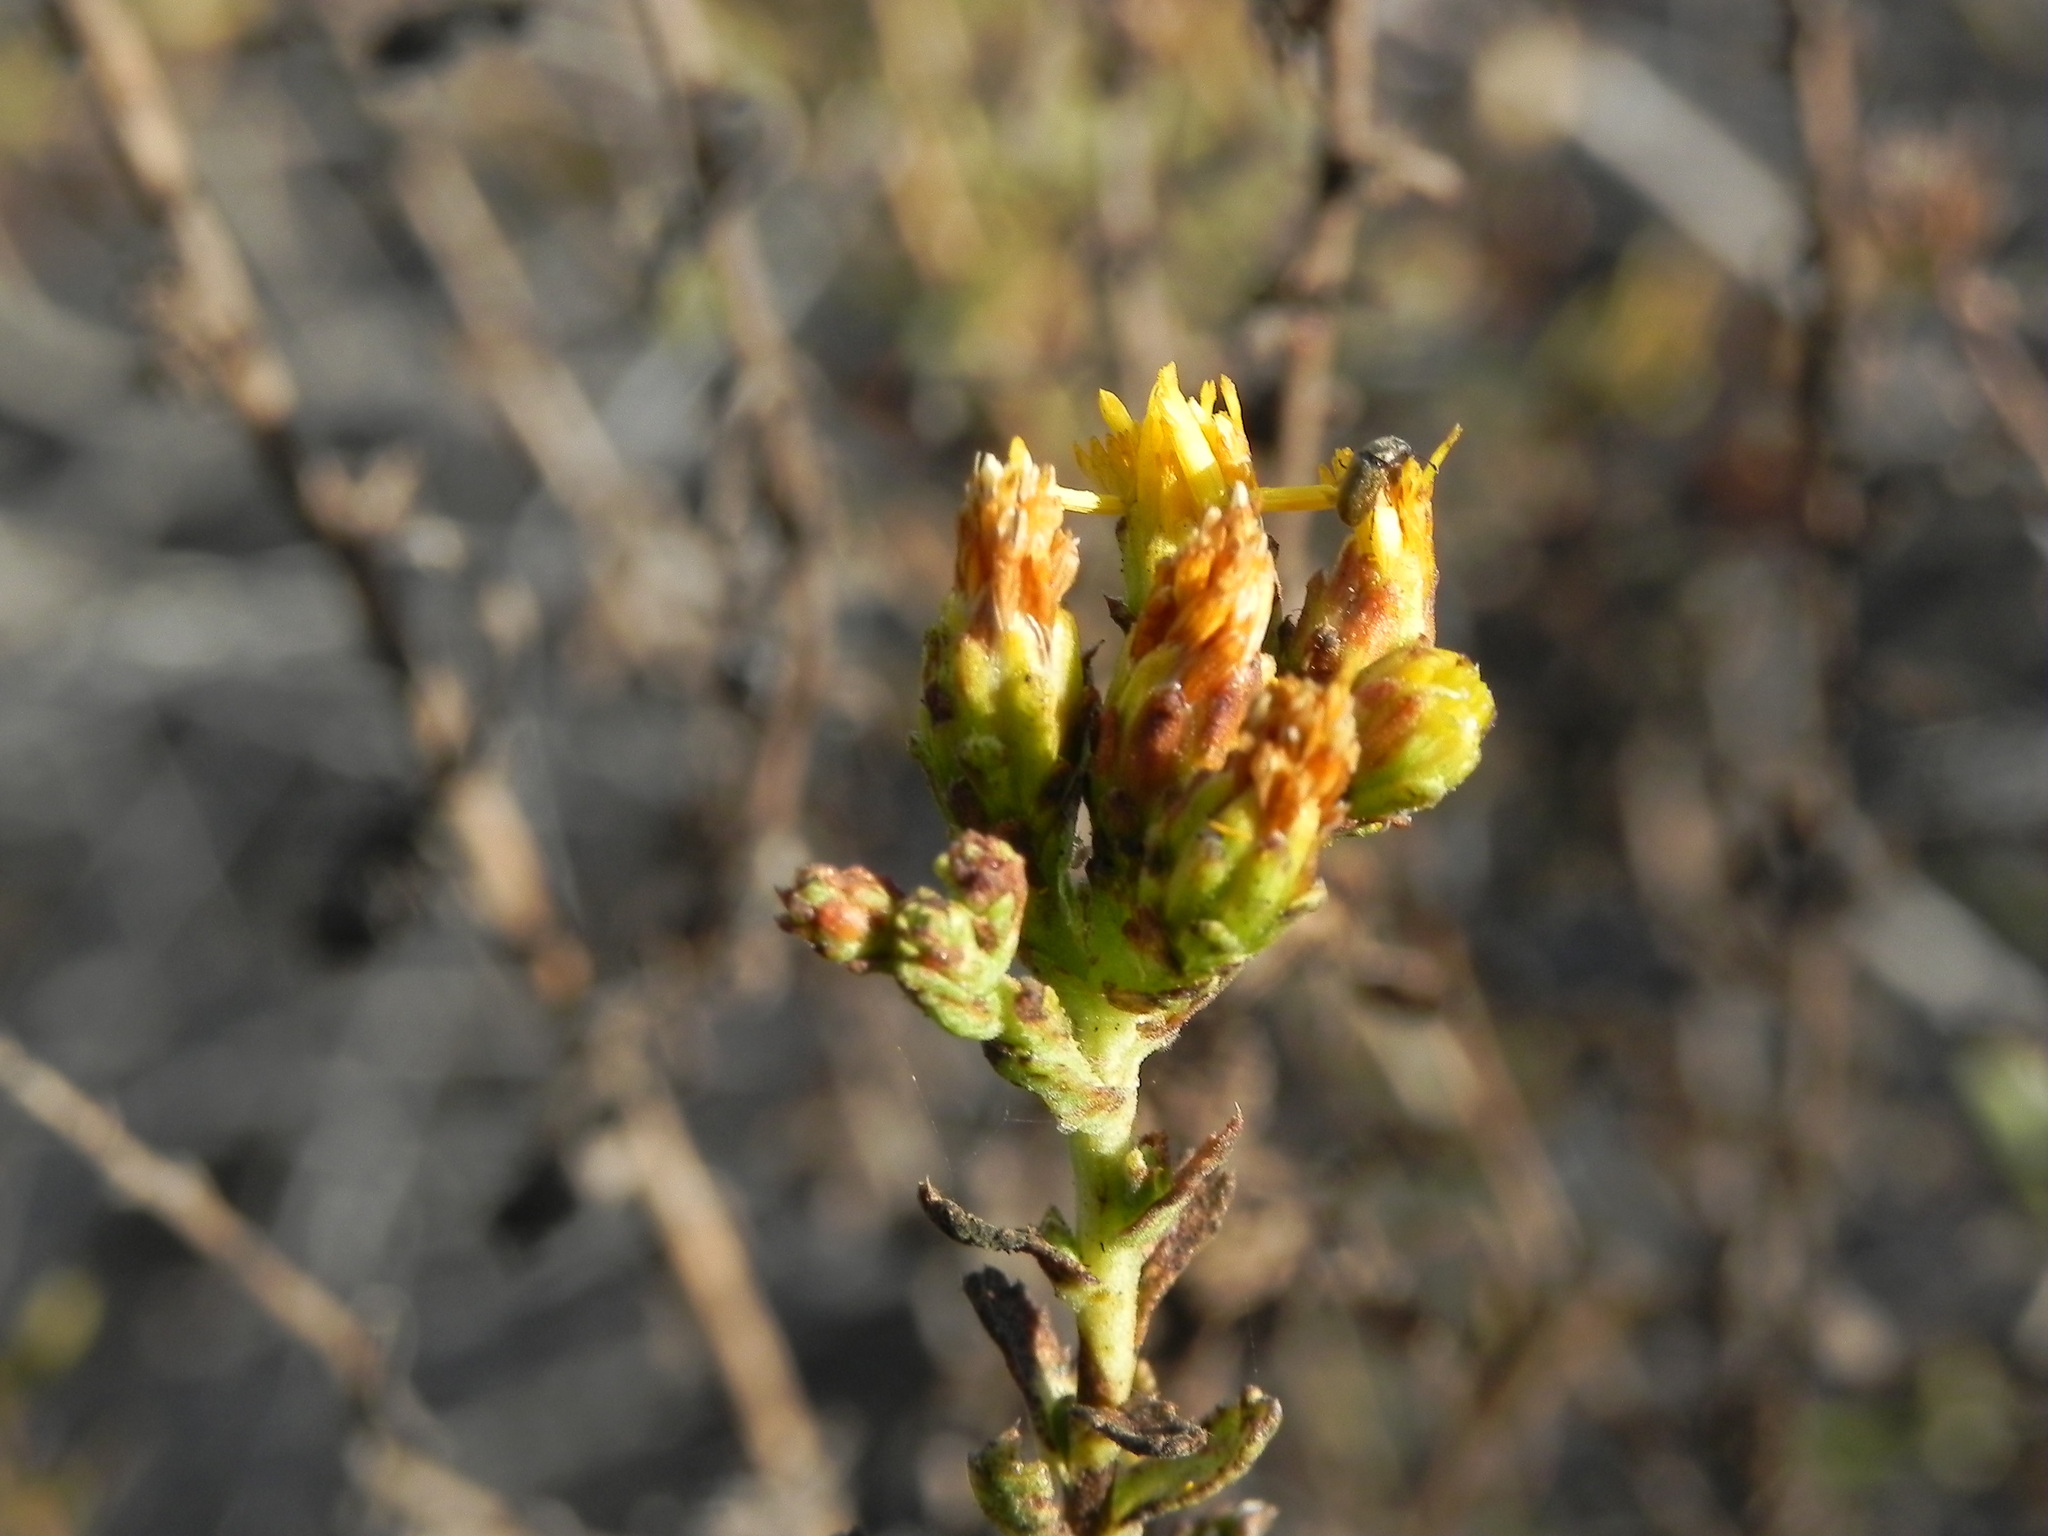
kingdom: Plantae
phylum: Tracheophyta
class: Magnoliopsida
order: Asterales
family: Asteraceae
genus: Isocoma
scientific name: Isocoma menziesii
